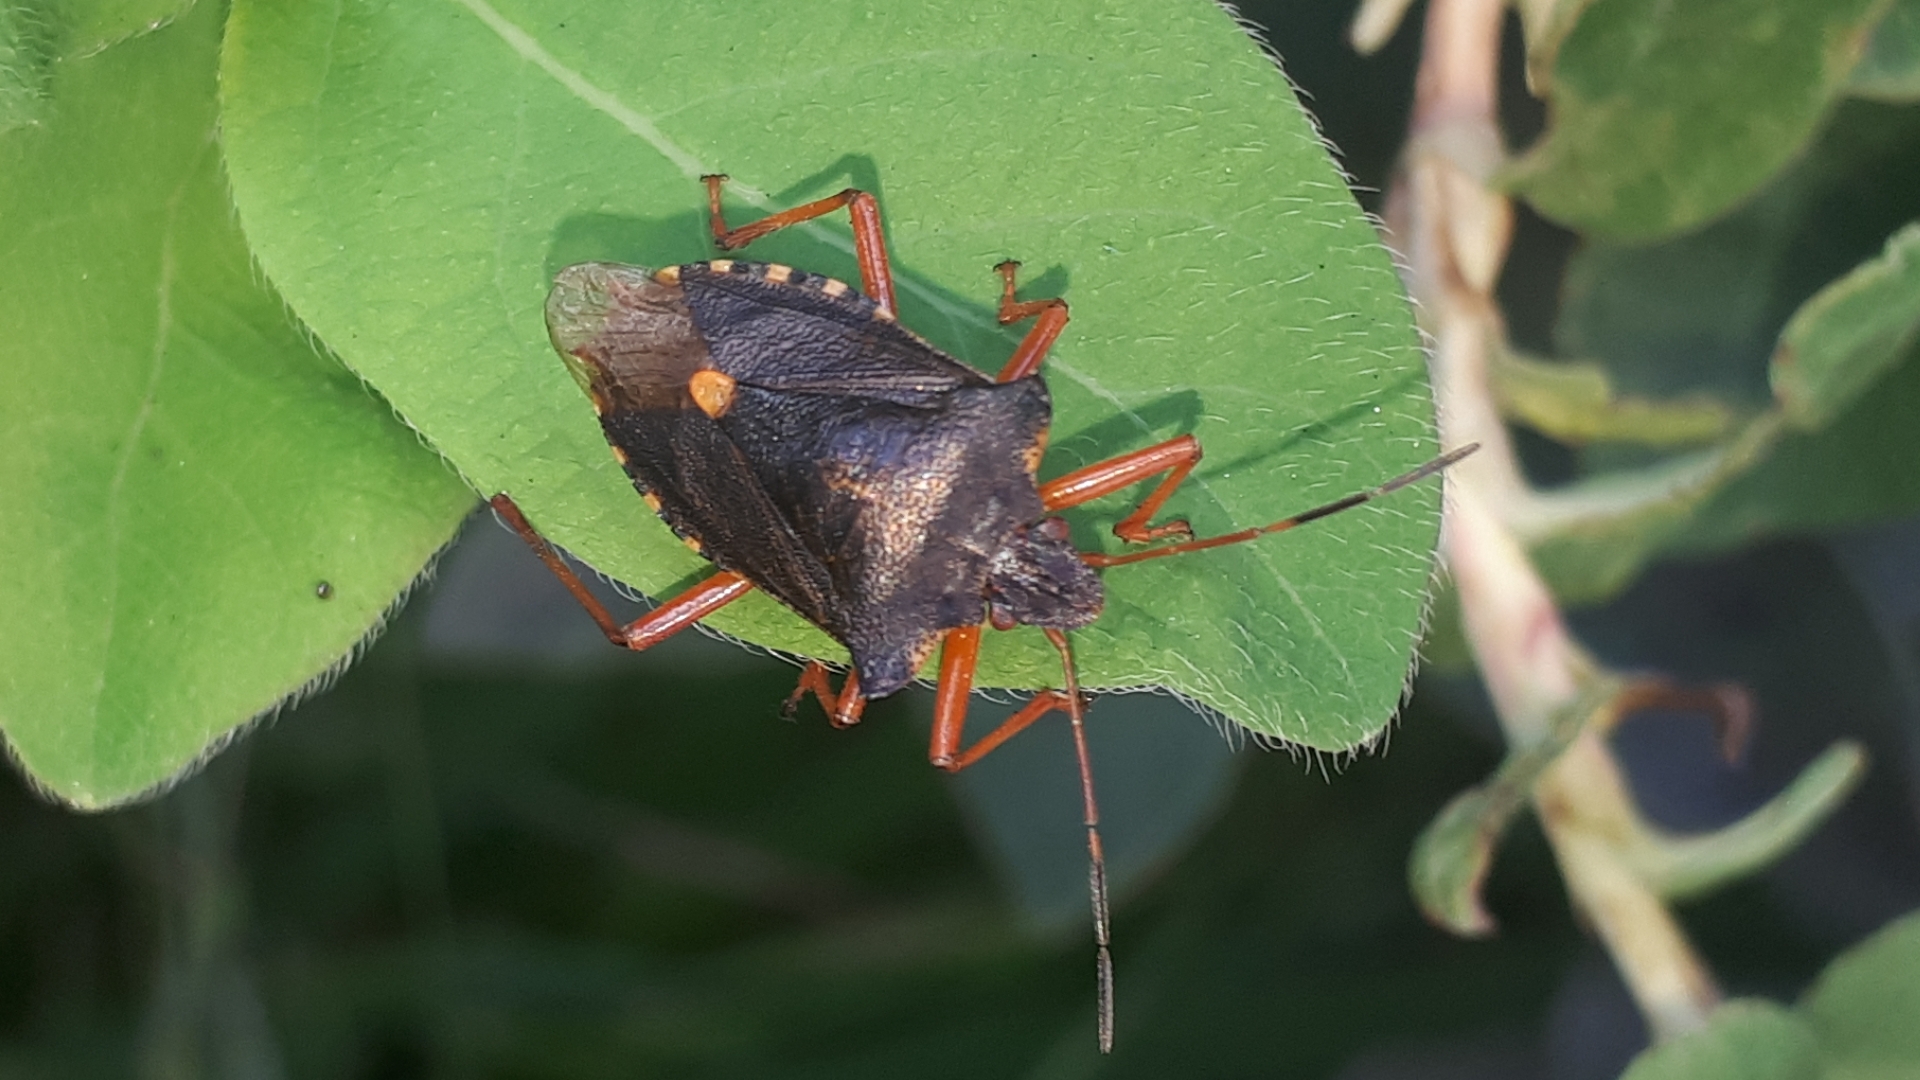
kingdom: Animalia
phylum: Arthropoda
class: Insecta
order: Hemiptera
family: Pentatomidae
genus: Pentatoma
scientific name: Pentatoma rufipes
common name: Forest bug
